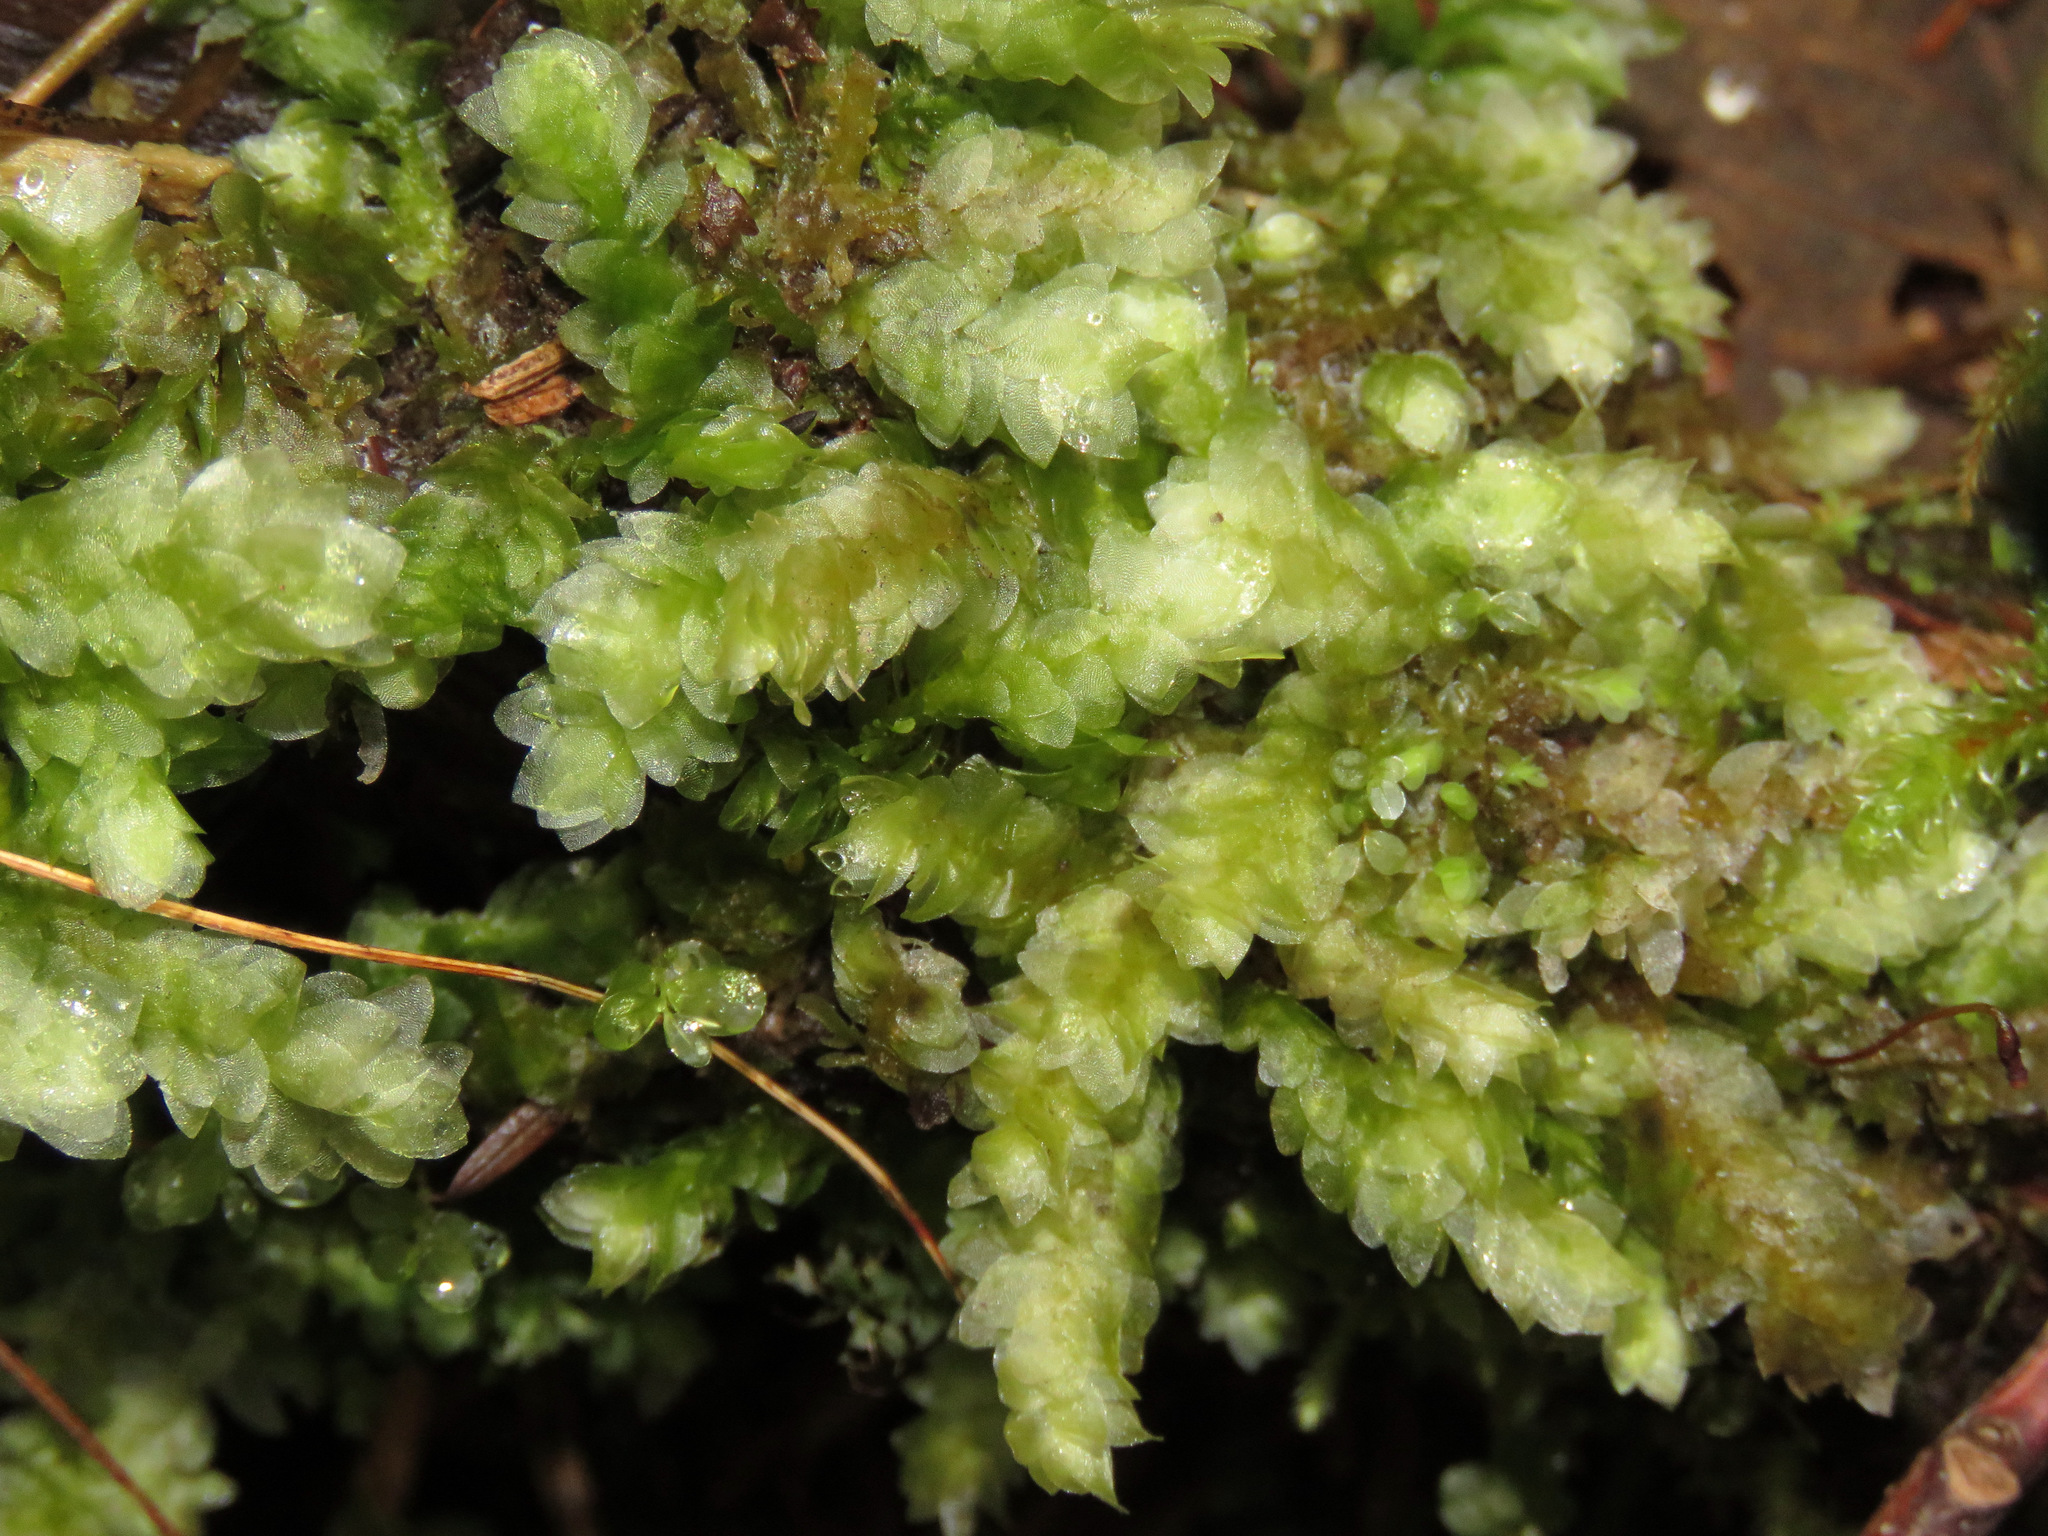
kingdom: Plantae
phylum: Bryophyta
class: Bryopsida
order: Hookeriales
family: Hookeriaceae
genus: Hookeria
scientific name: Hookeria lucens
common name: Shining hookeria
